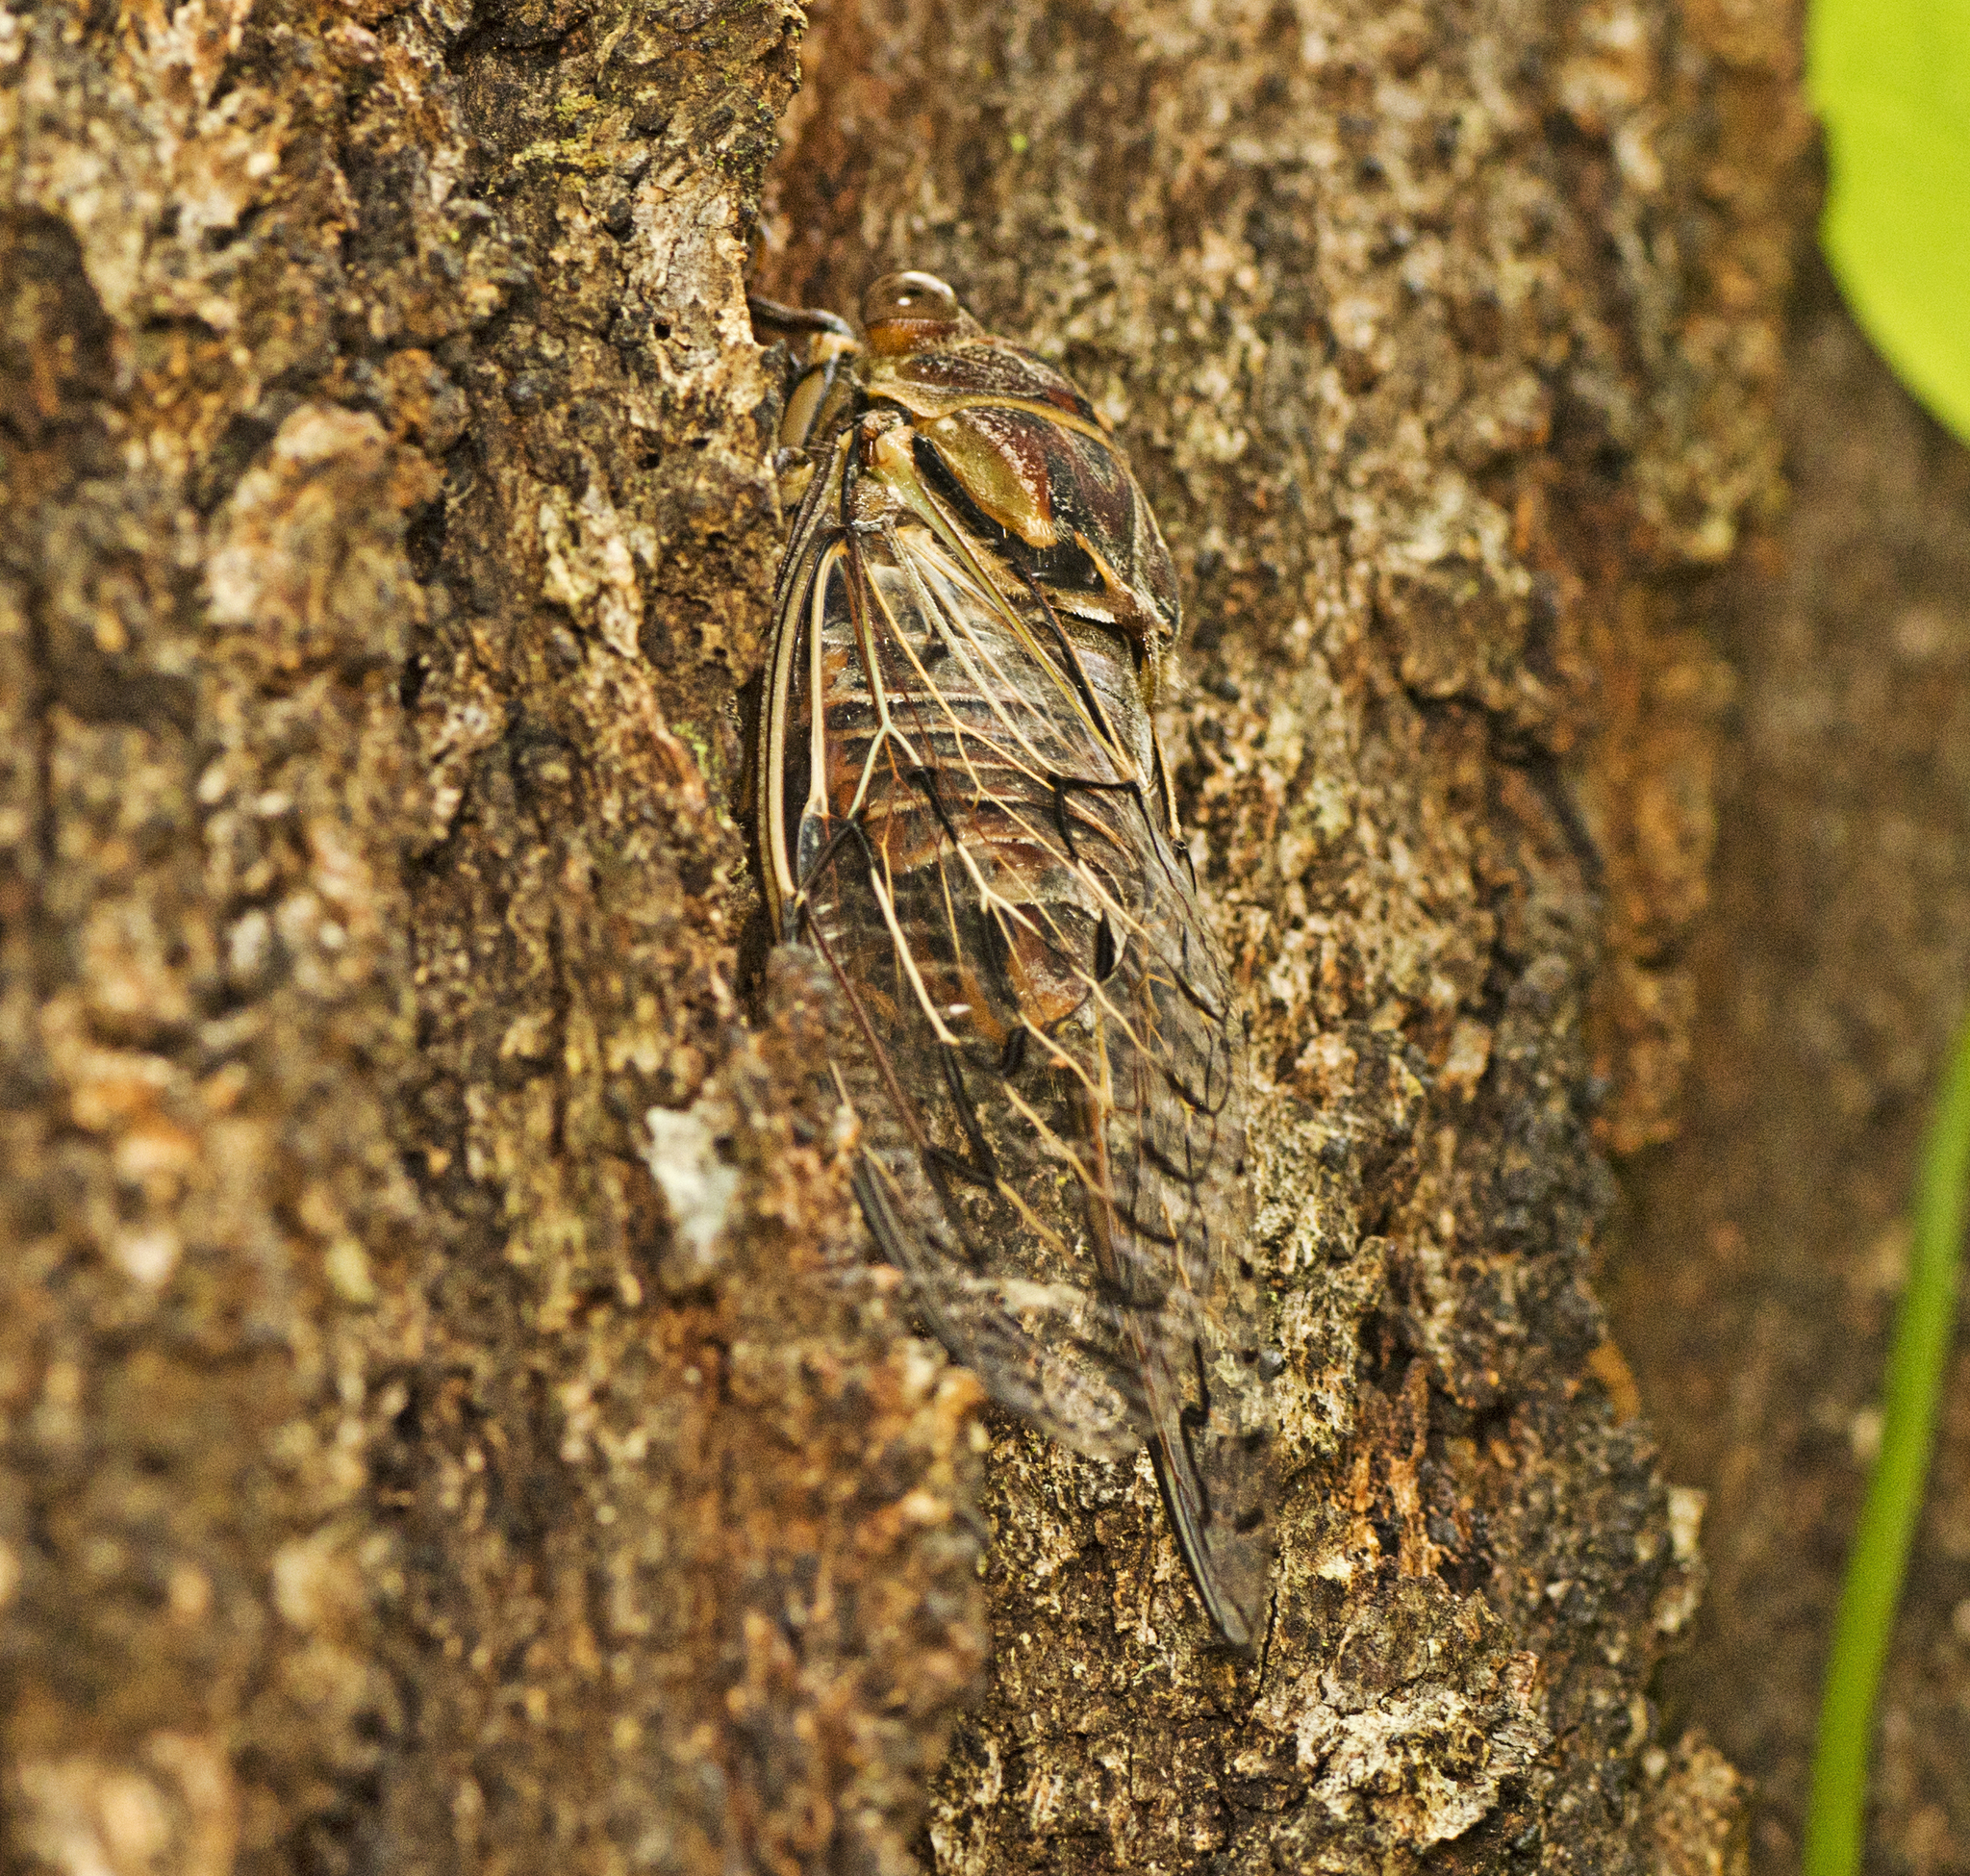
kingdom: Animalia
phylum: Arthropoda
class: Insecta
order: Hemiptera
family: Cicadidae
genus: Henicopsaltria
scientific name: Henicopsaltria eydouxii
